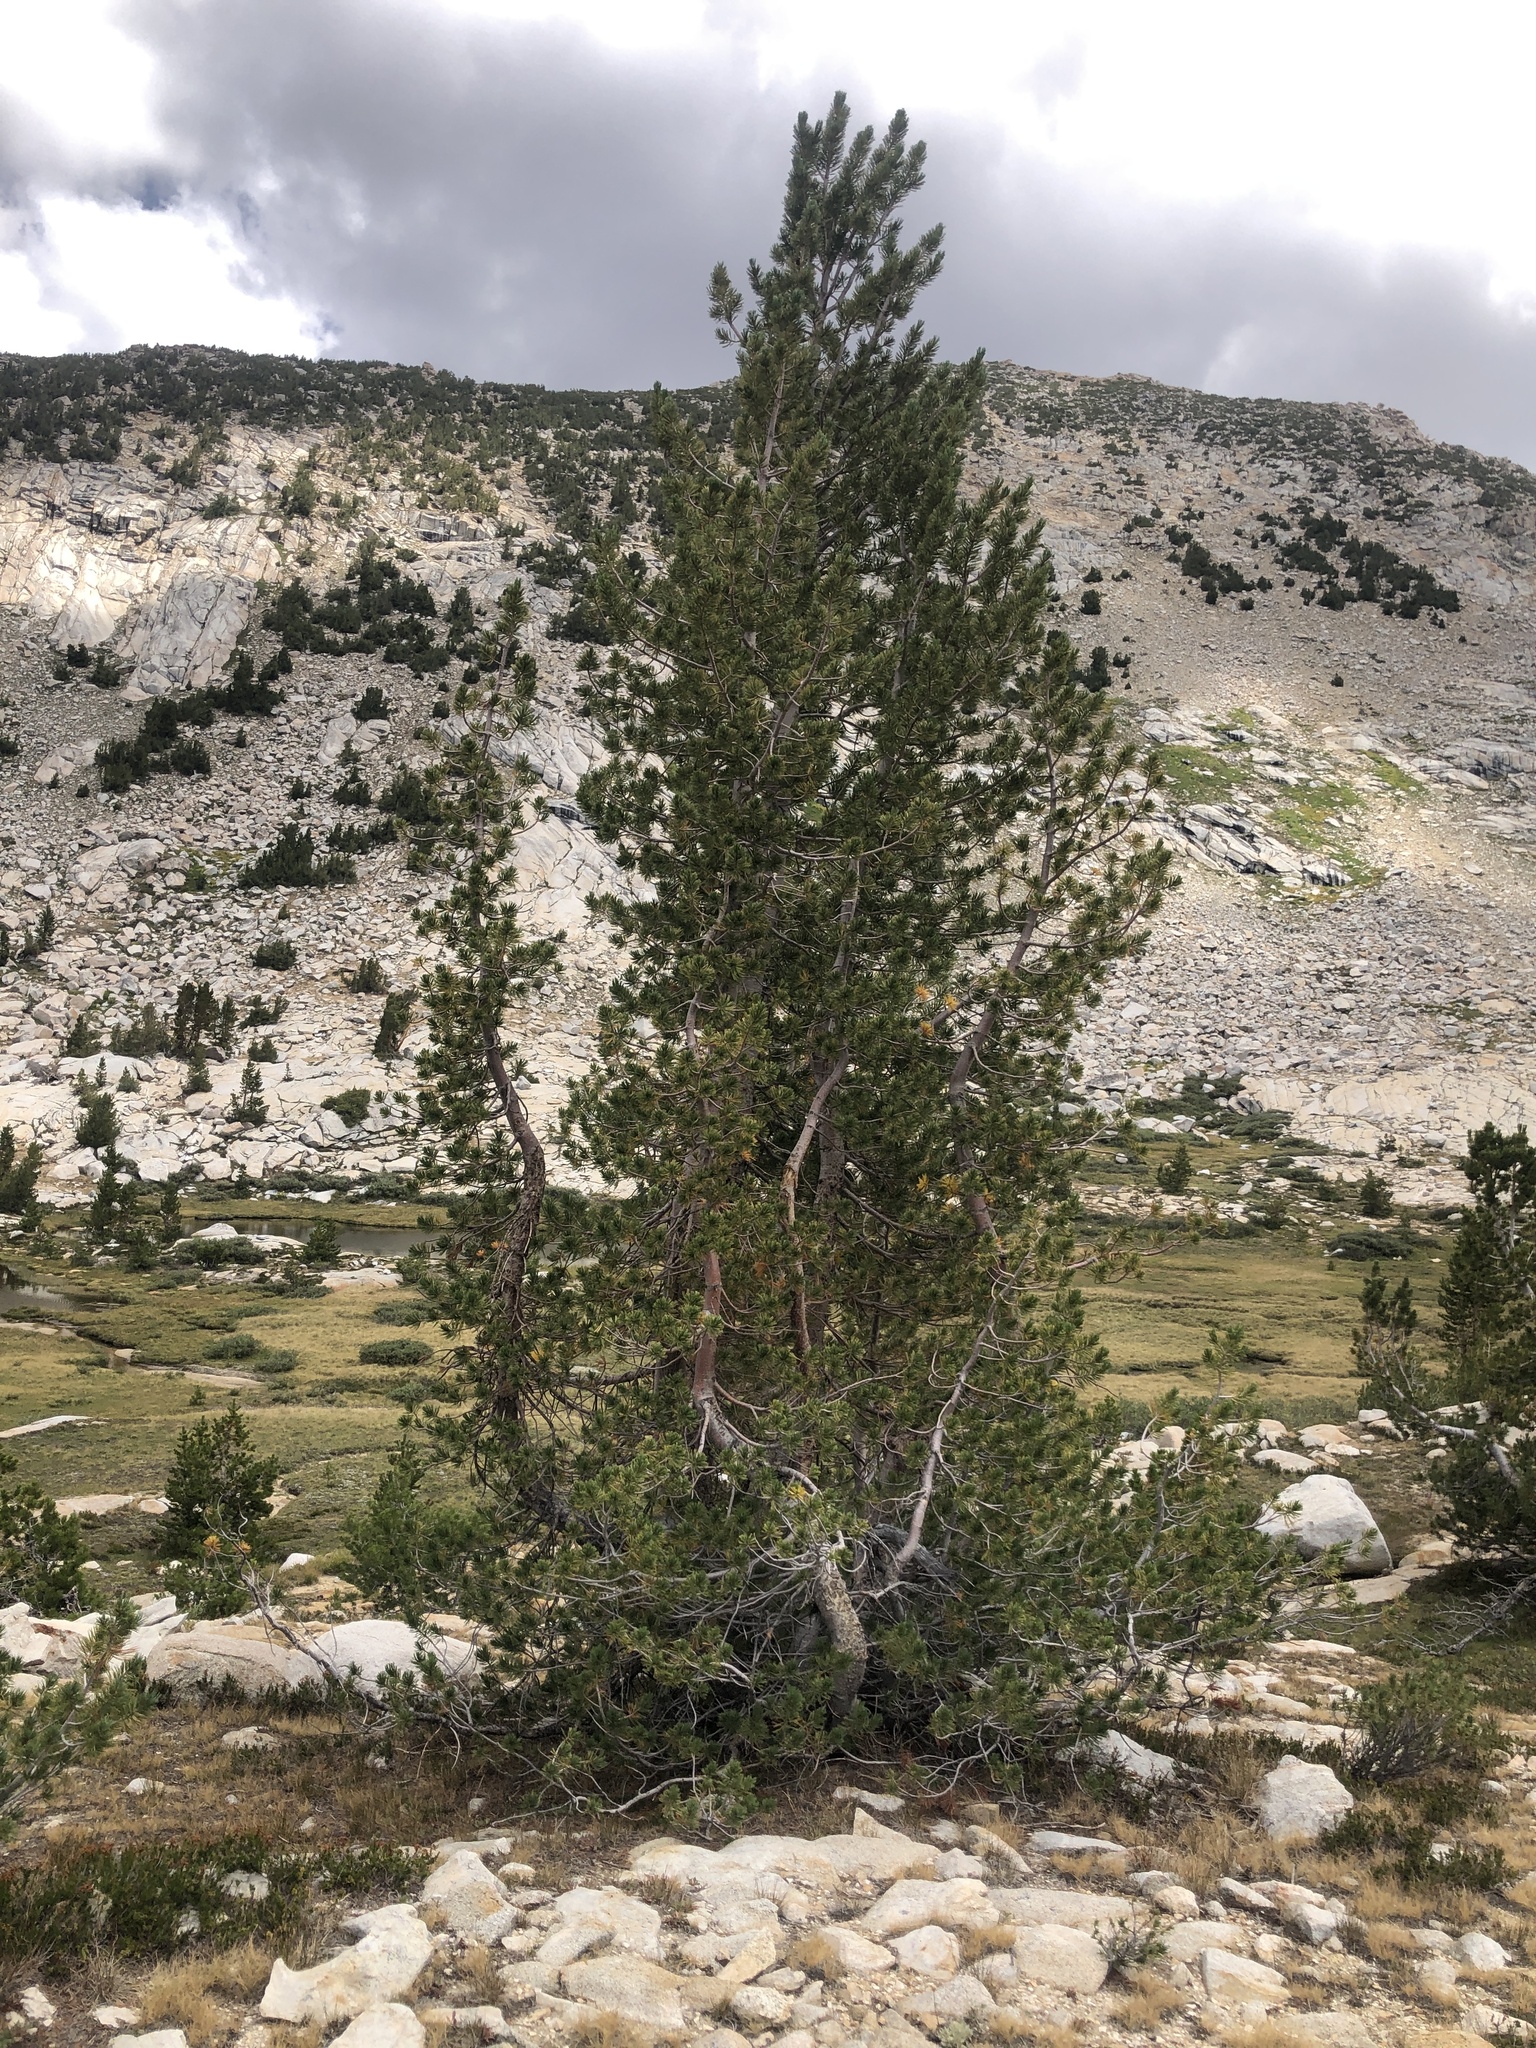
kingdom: Plantae
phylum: Tracheophyta
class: Pinopsida
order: Pinales
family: Pinaceae
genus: Pinus
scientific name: Pinus albicaulis
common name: Whitebark pine
